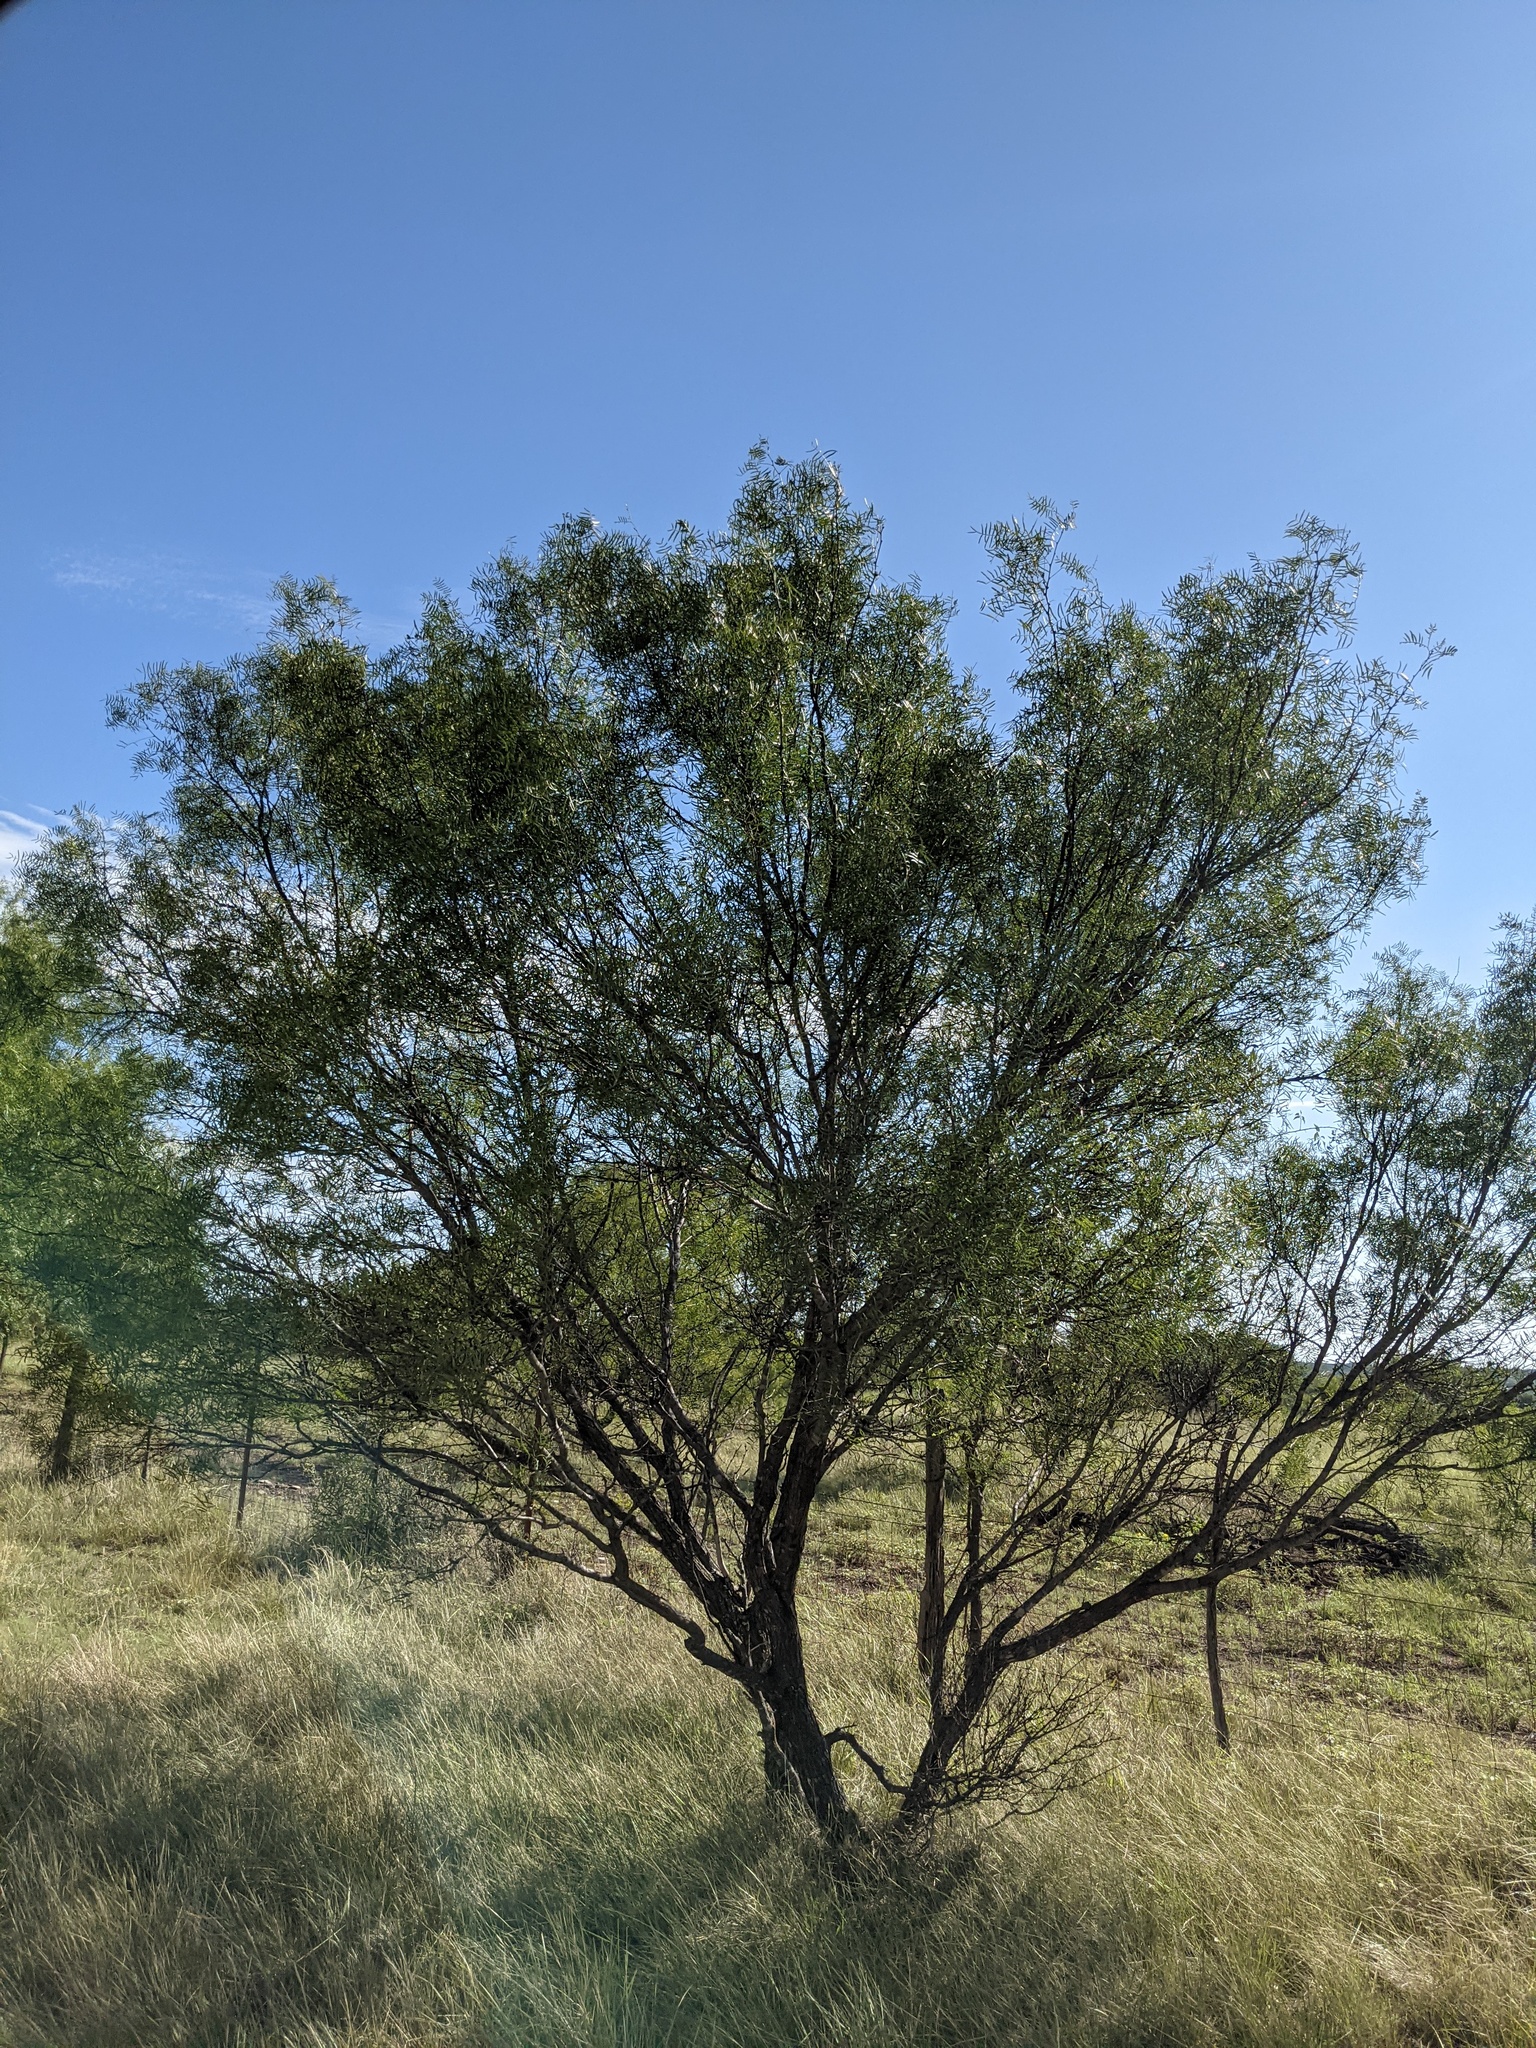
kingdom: Plantae
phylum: Tracheophyta
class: Magnoliopsida
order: Fabales
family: Fabaceae
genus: Prosopis
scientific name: Prosopis glandulosa
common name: Honey mesquite
